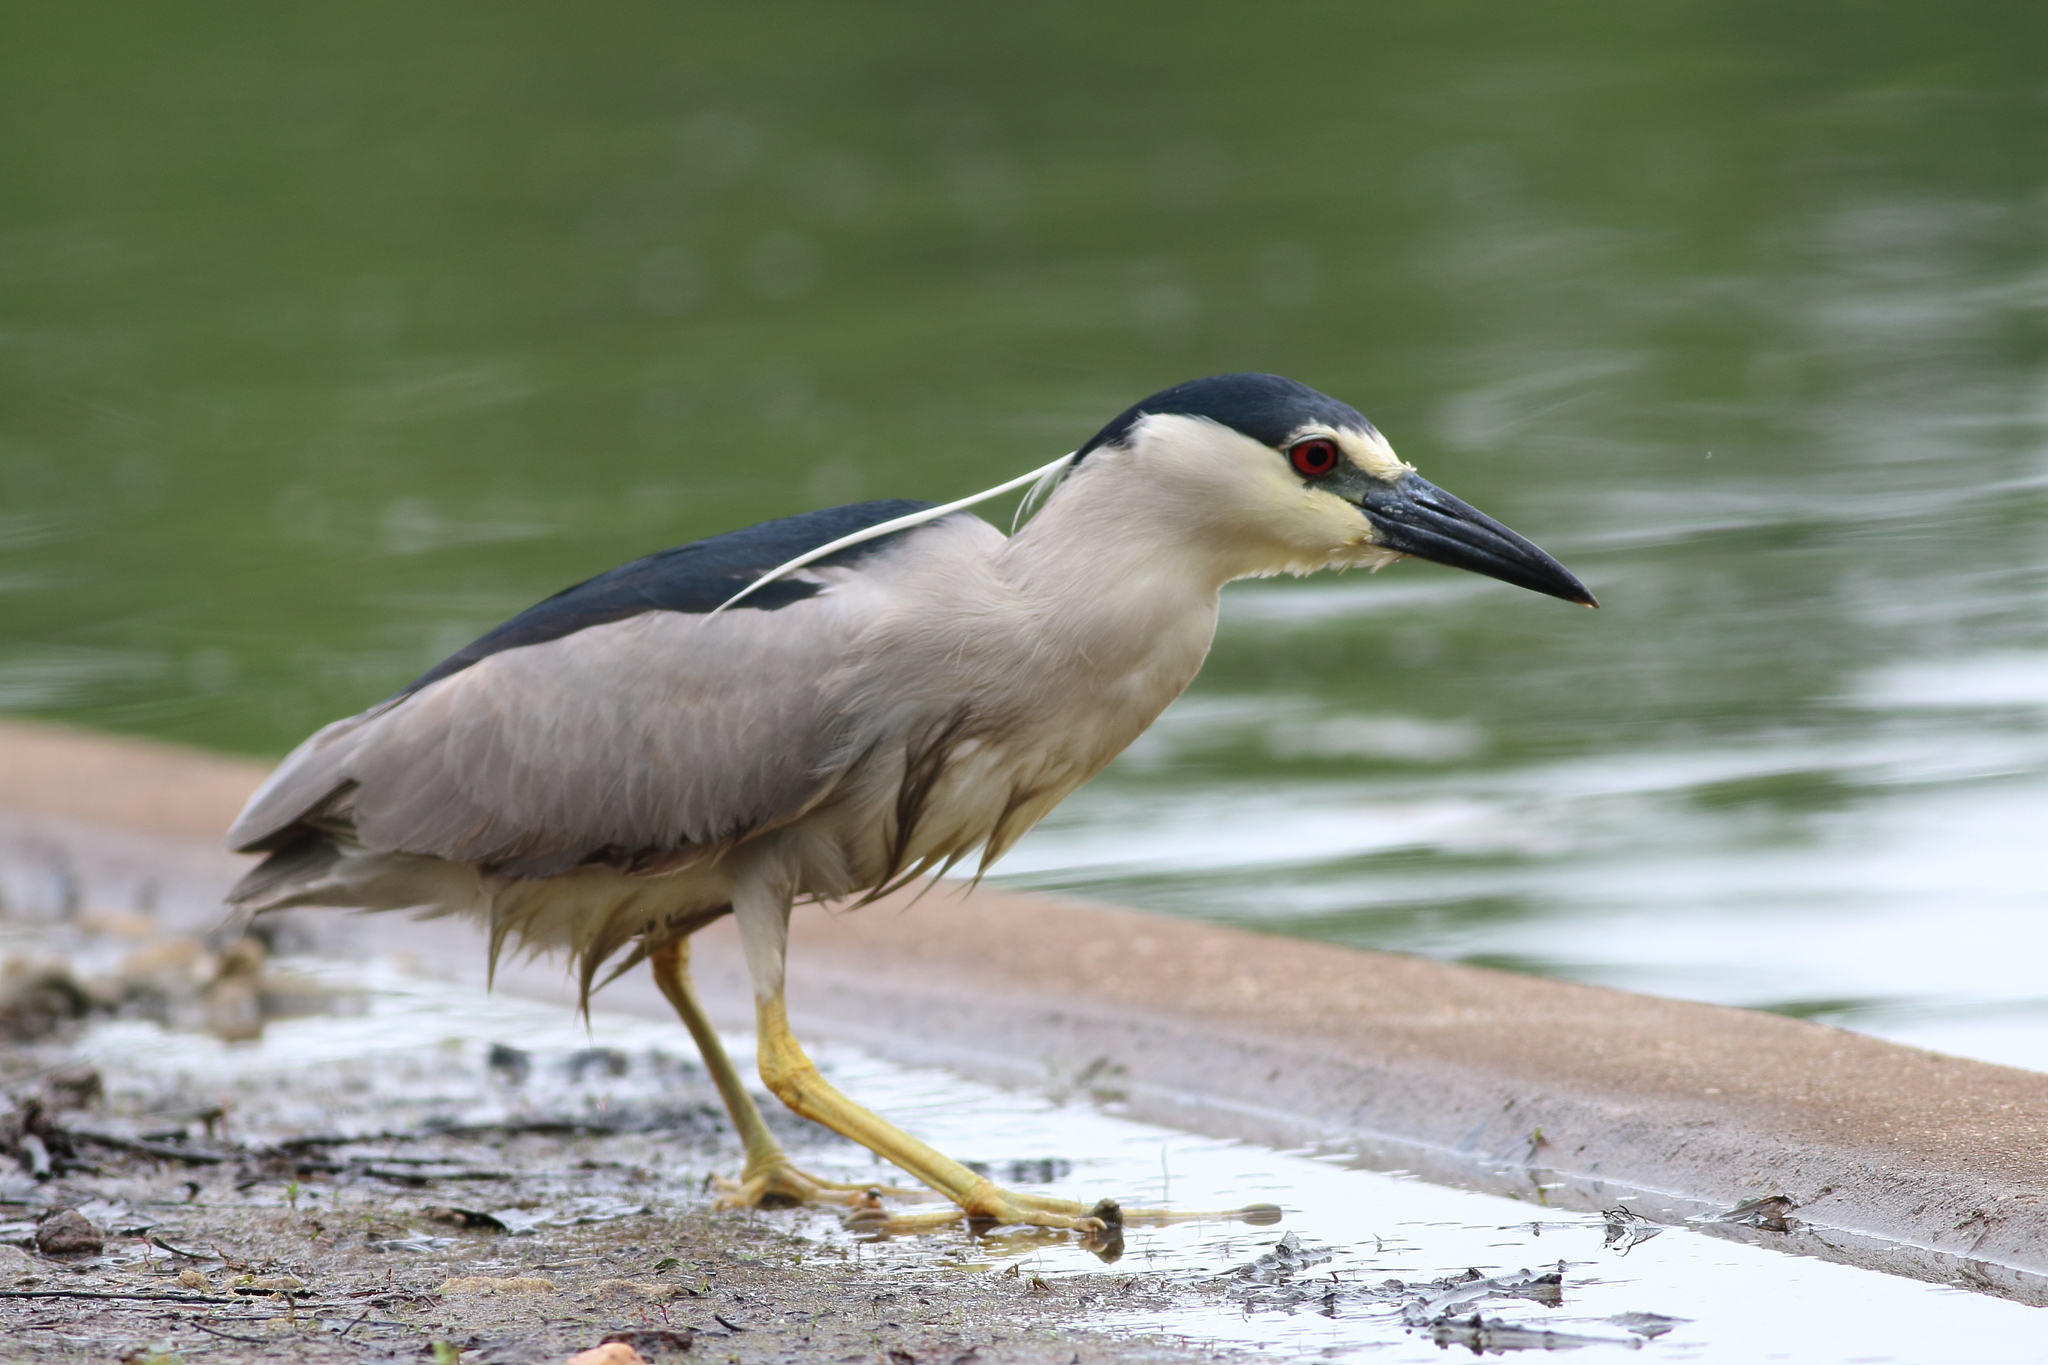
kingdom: Animalia
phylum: Chordata
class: Aves
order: Pelecaniformes
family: Ardeidae
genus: Nycticorax
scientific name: Nycticorax nycticorax
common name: Black-crowned night heron
